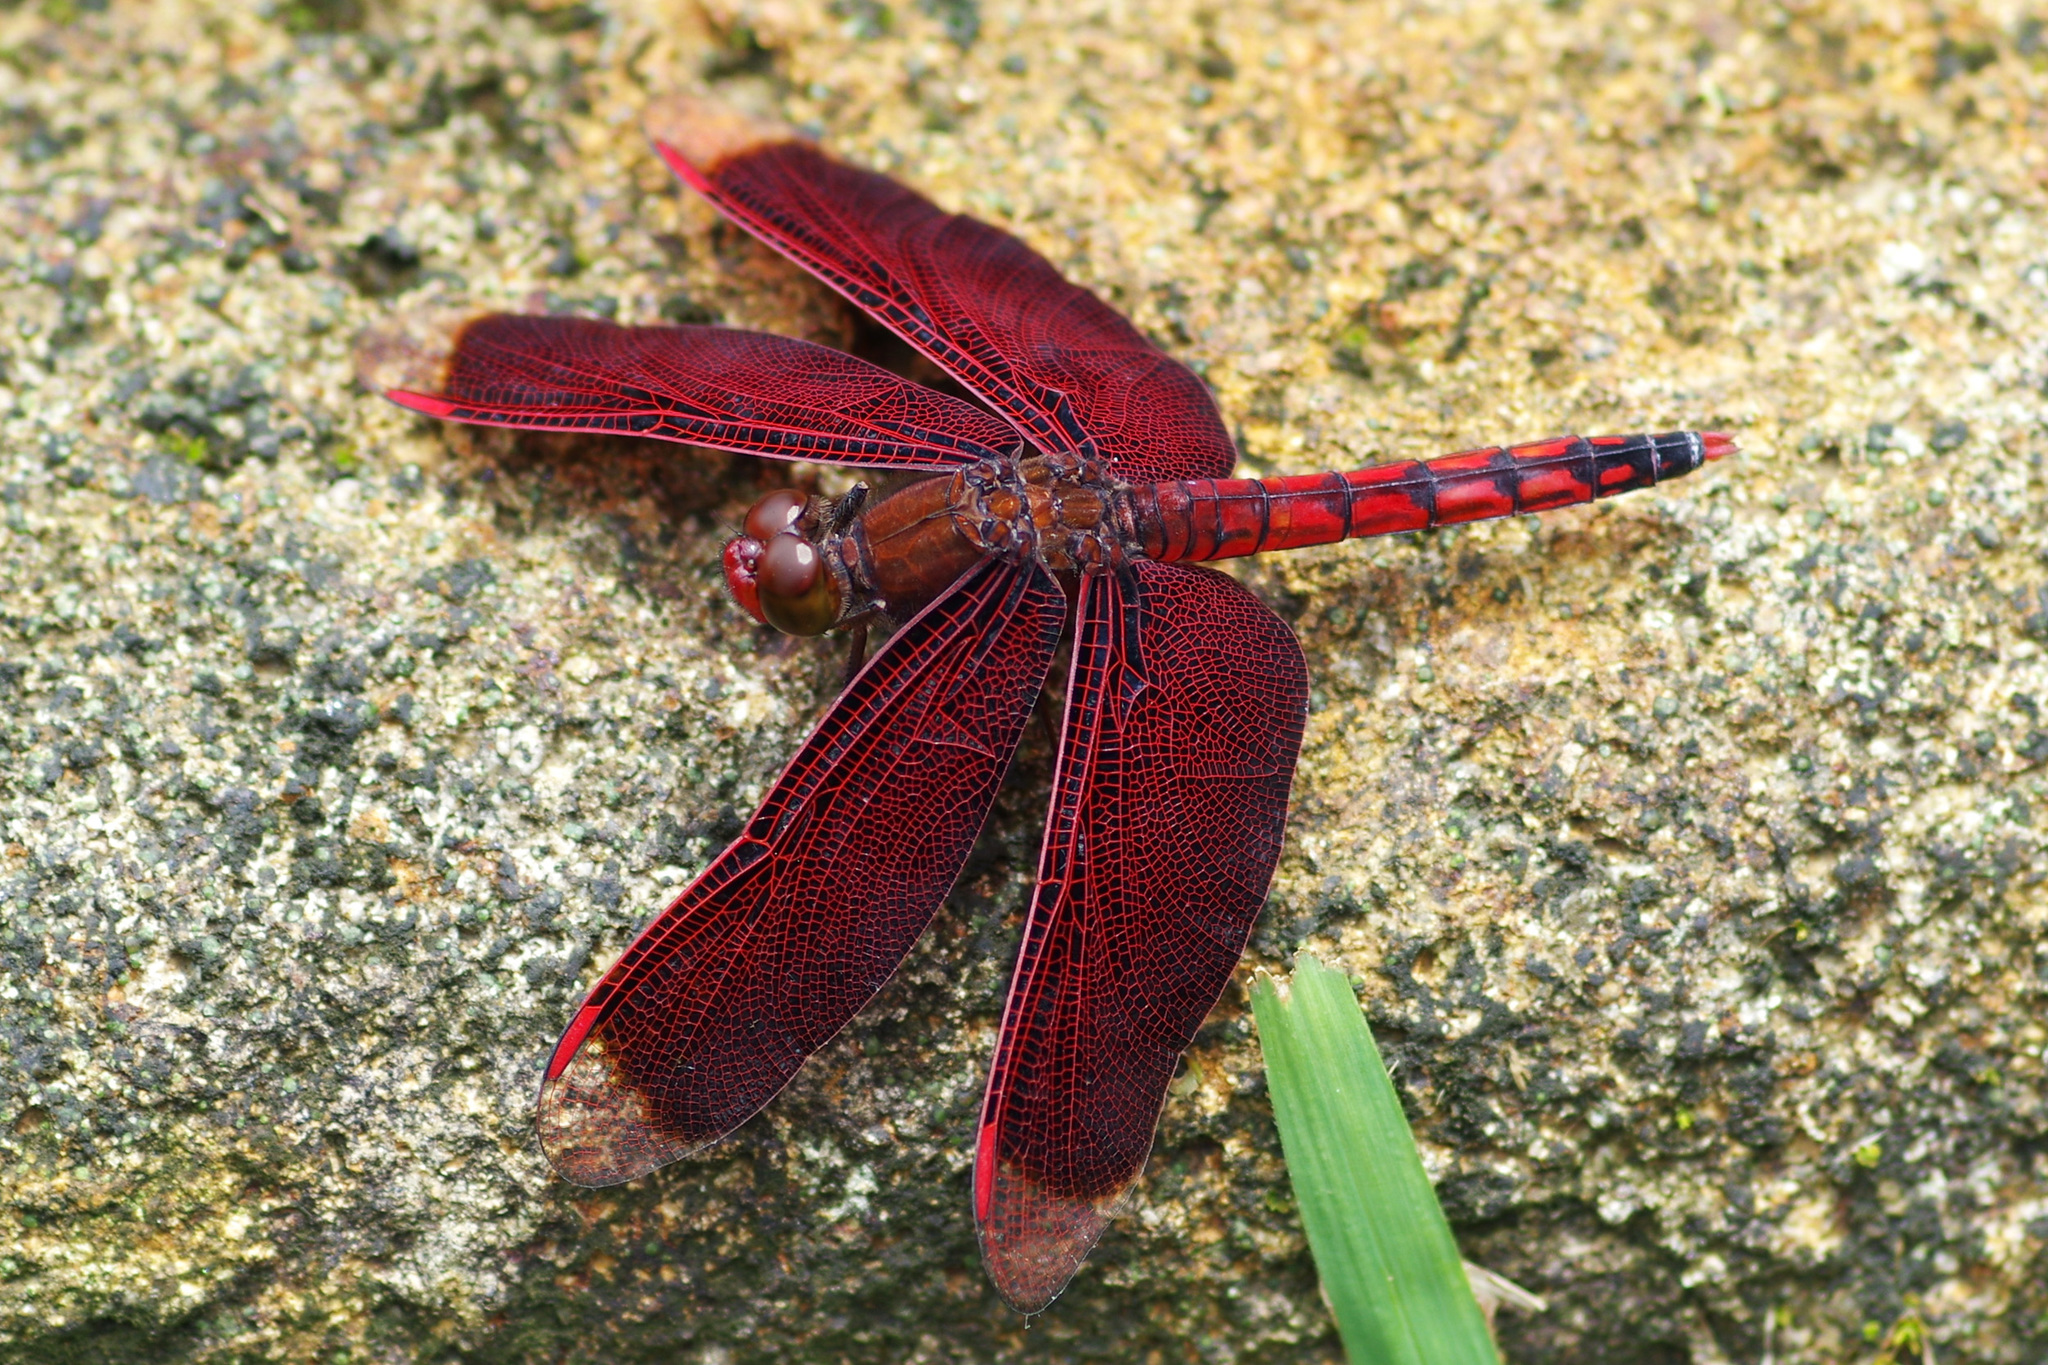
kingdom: Animalia
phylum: Arthropoda
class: Insecta
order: Odonata
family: Libellulidae
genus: Neurothemis
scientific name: Neurothemis taiwanensis
